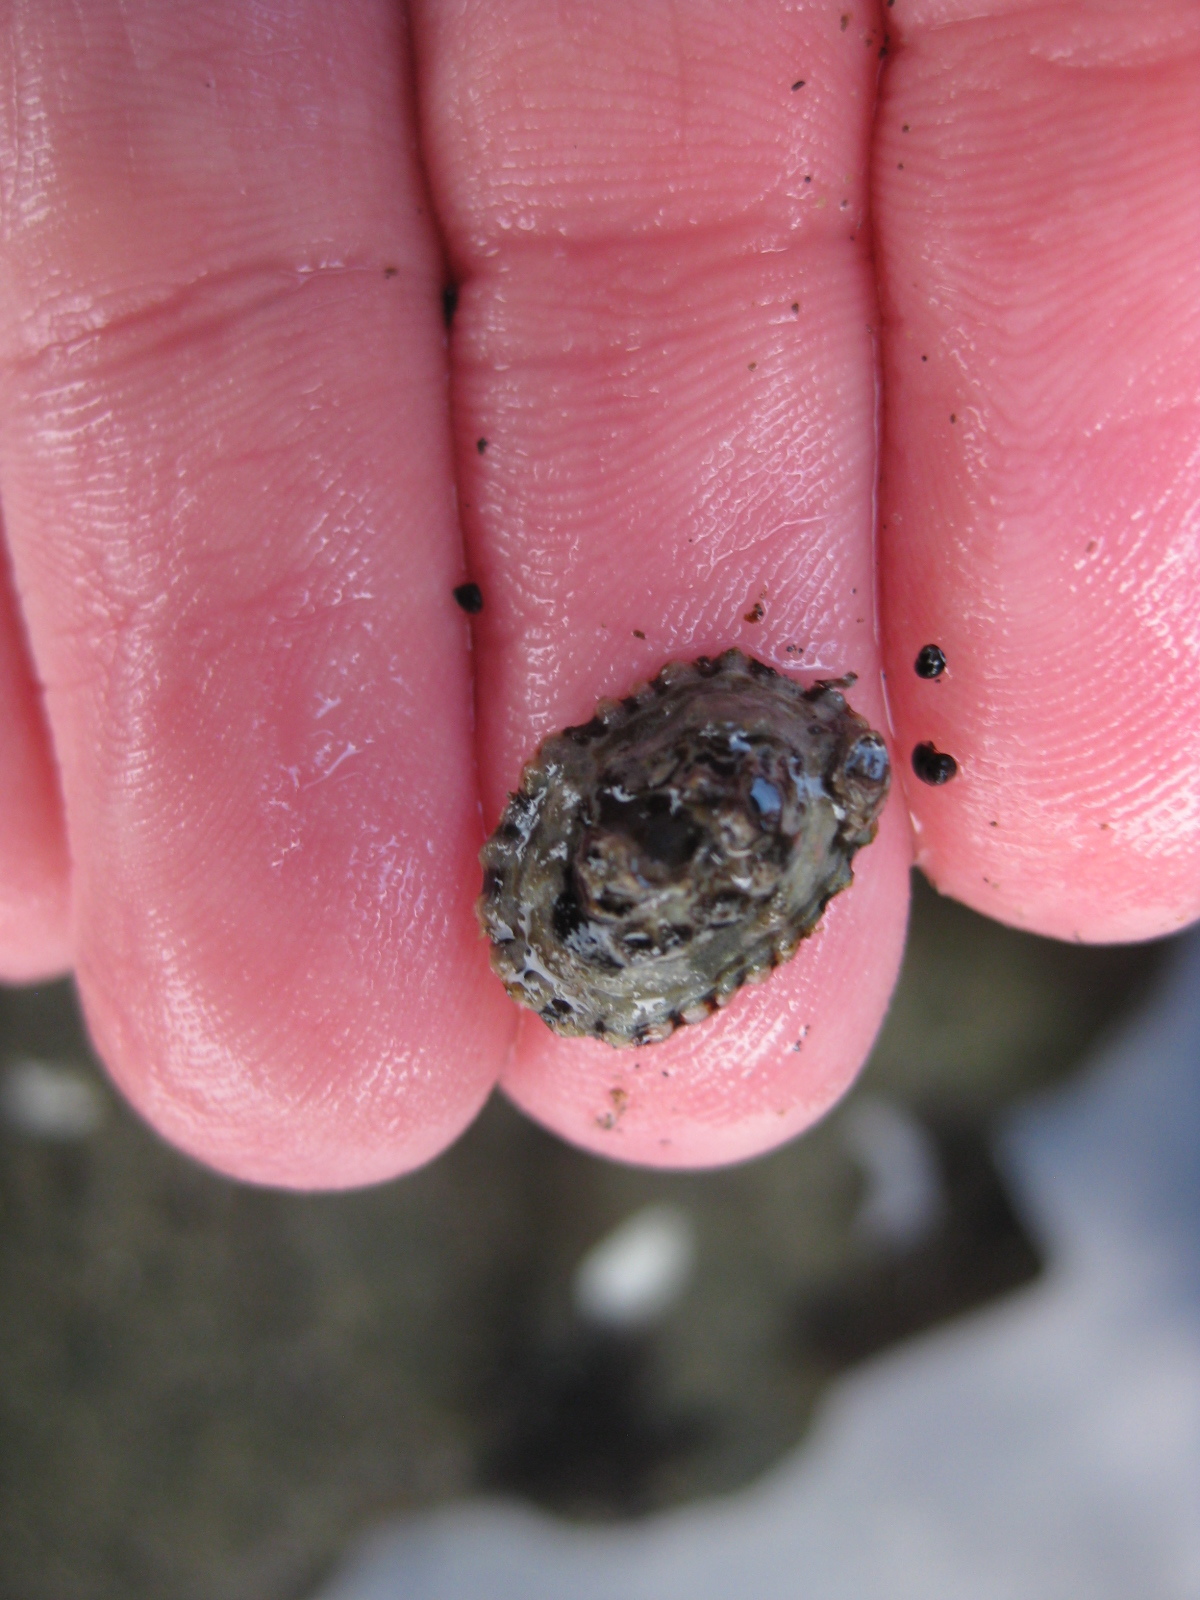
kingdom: Animalia
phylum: Mollusca
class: Gastropoda
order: Siphonariida
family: Siphonariidae
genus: Siphonaria
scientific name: Siphonaria australis
